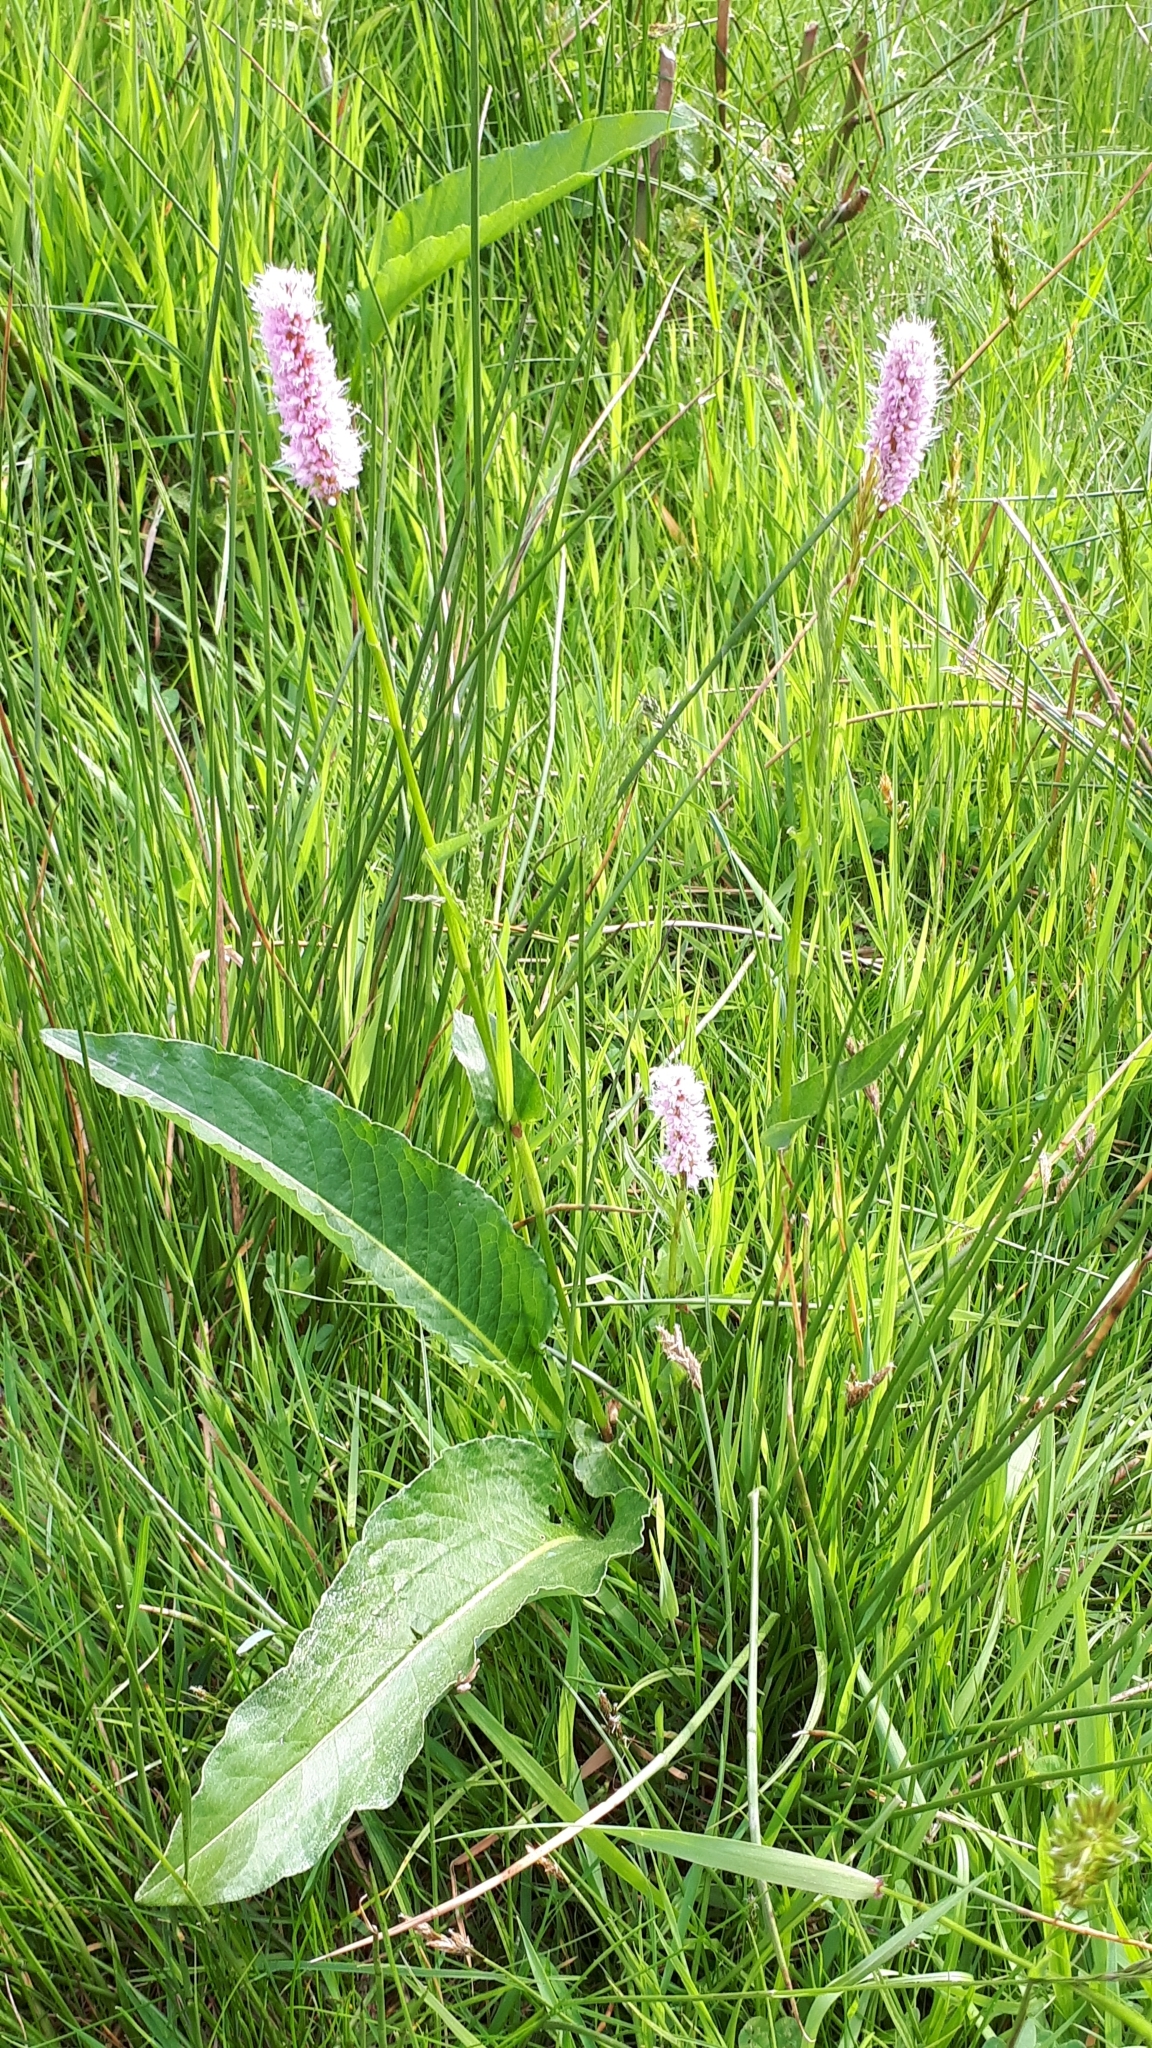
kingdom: Plantae
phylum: Tracheophyta
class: Magnoliopsida
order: Caryophyllales
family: Polygonaceae
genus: Bistorta
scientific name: Bistorta officinalis
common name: Common bistort
